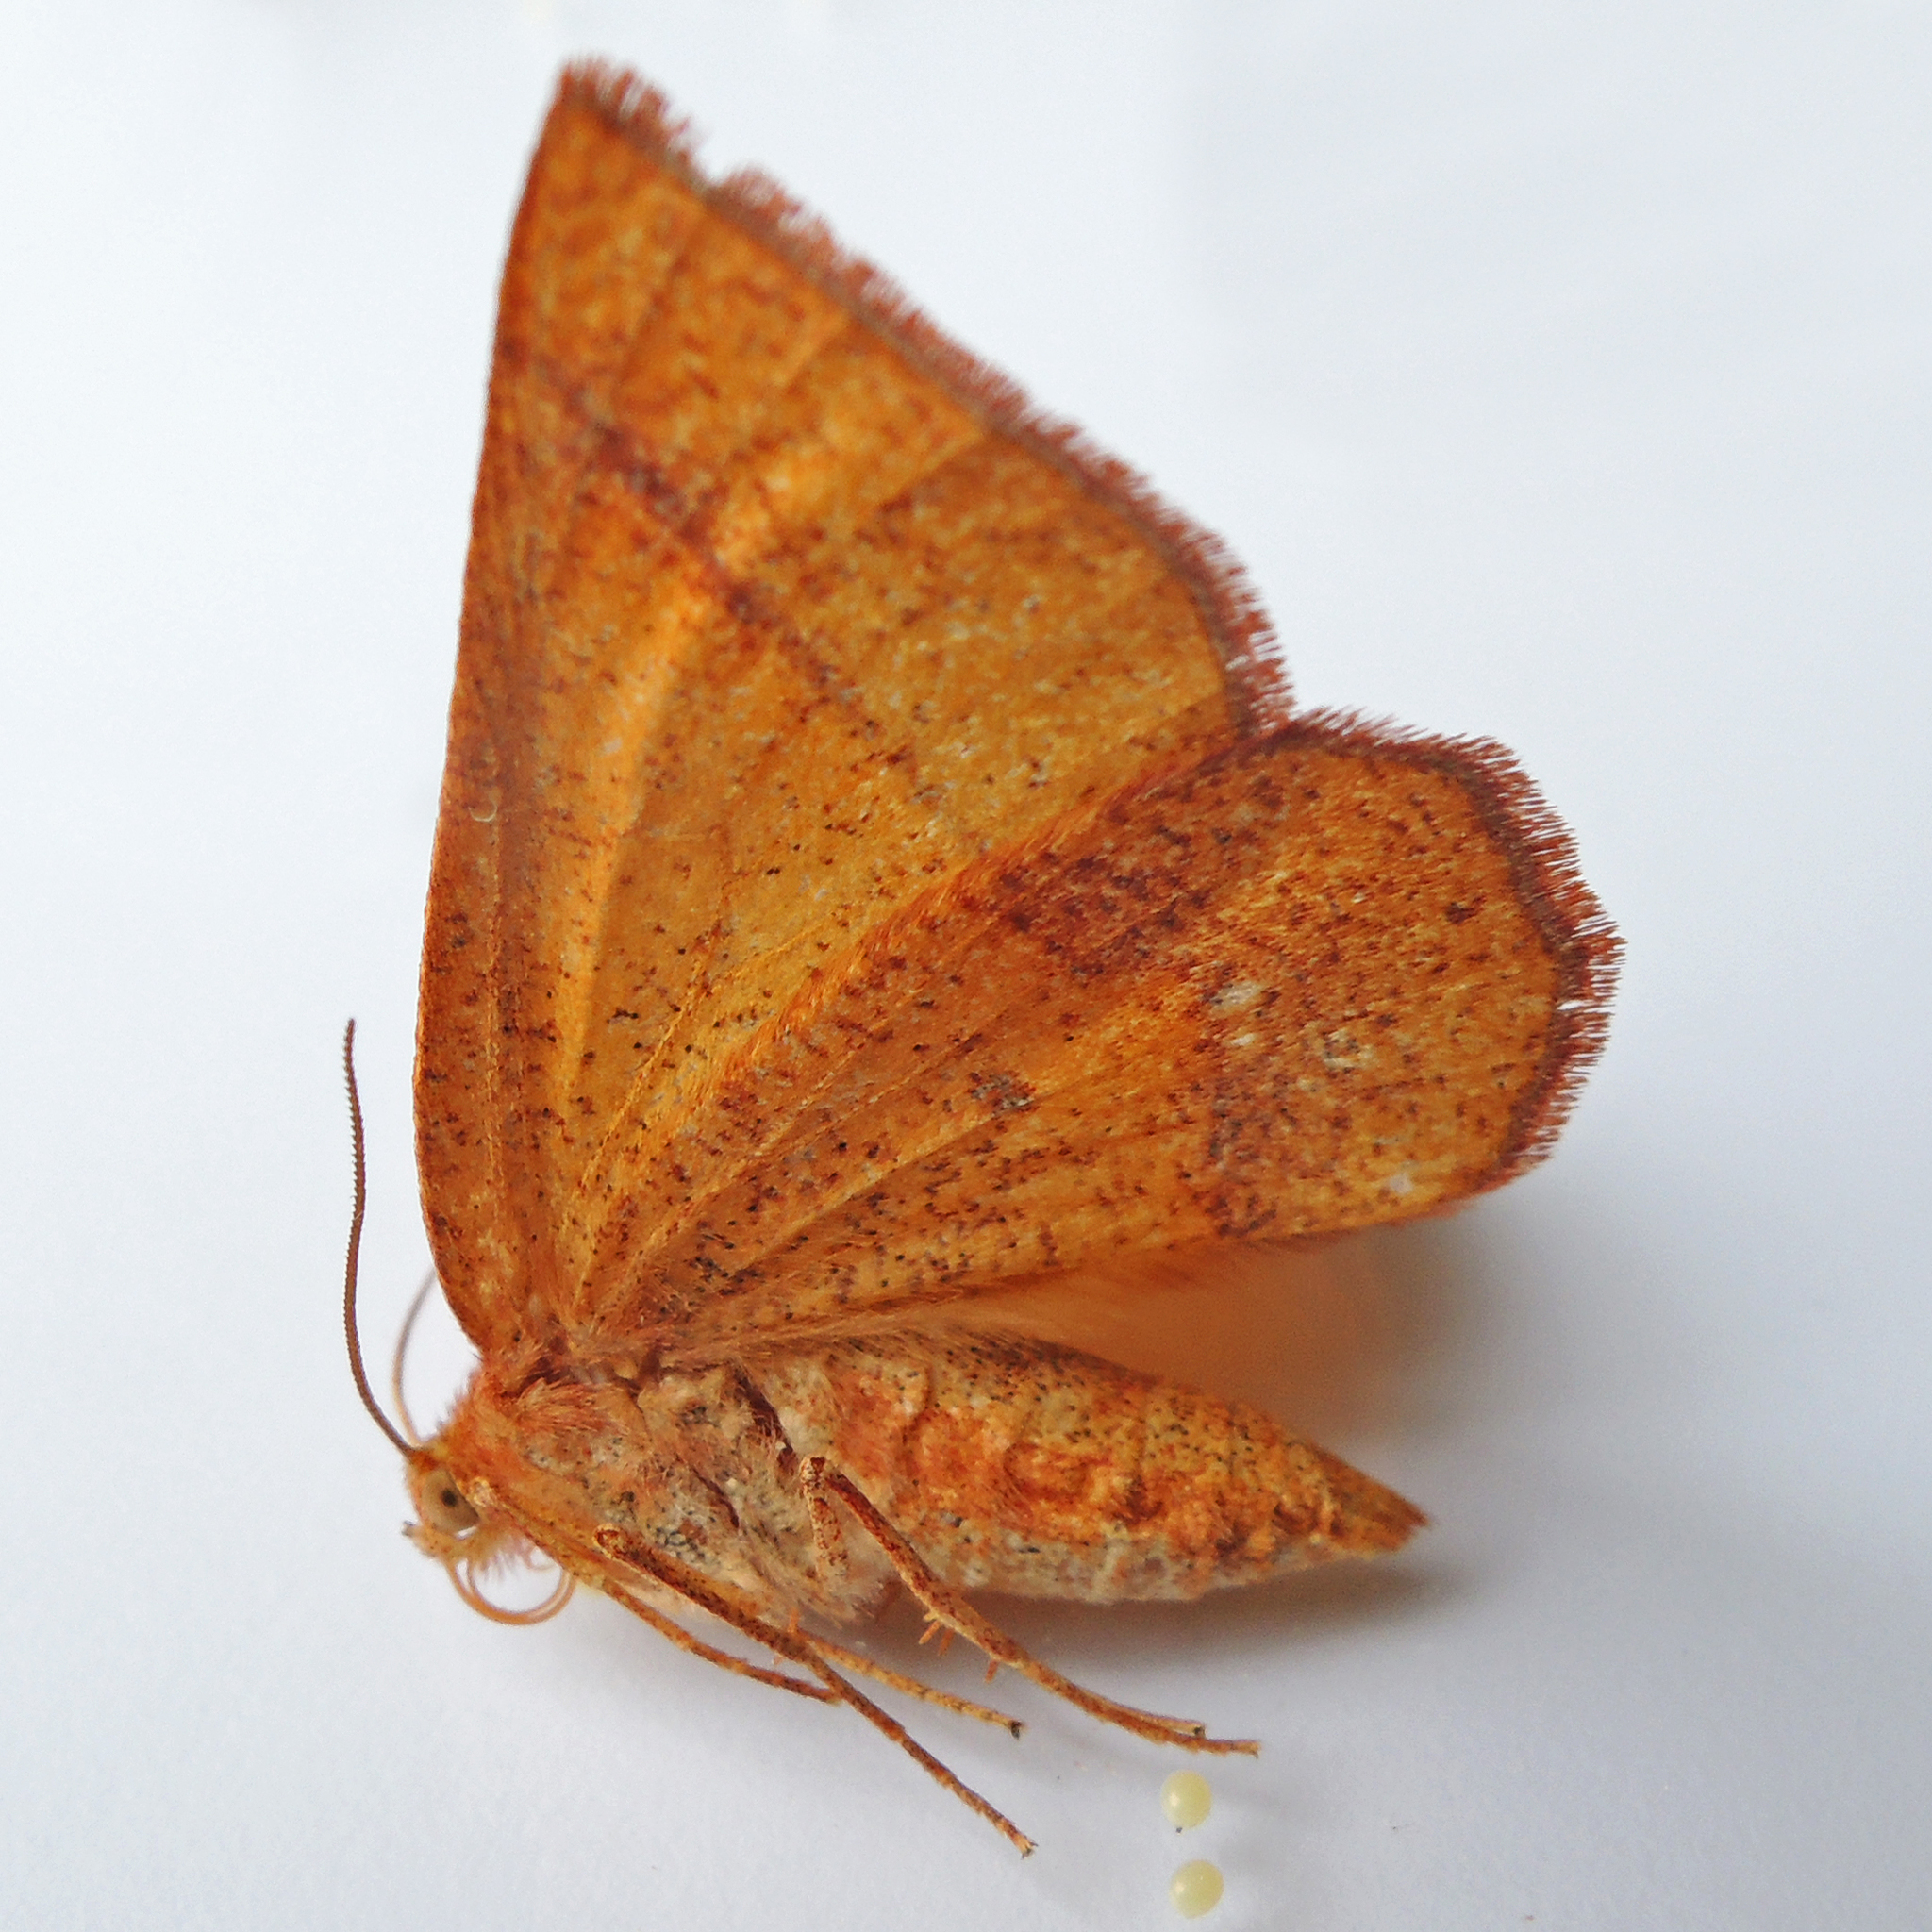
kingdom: Animalia
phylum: Arthropoda
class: Insecta
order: Lepidoptera
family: Geometridae
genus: Metarranthis
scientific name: Metarranthis obfirmaria
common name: Yellow-washed metarranthis
